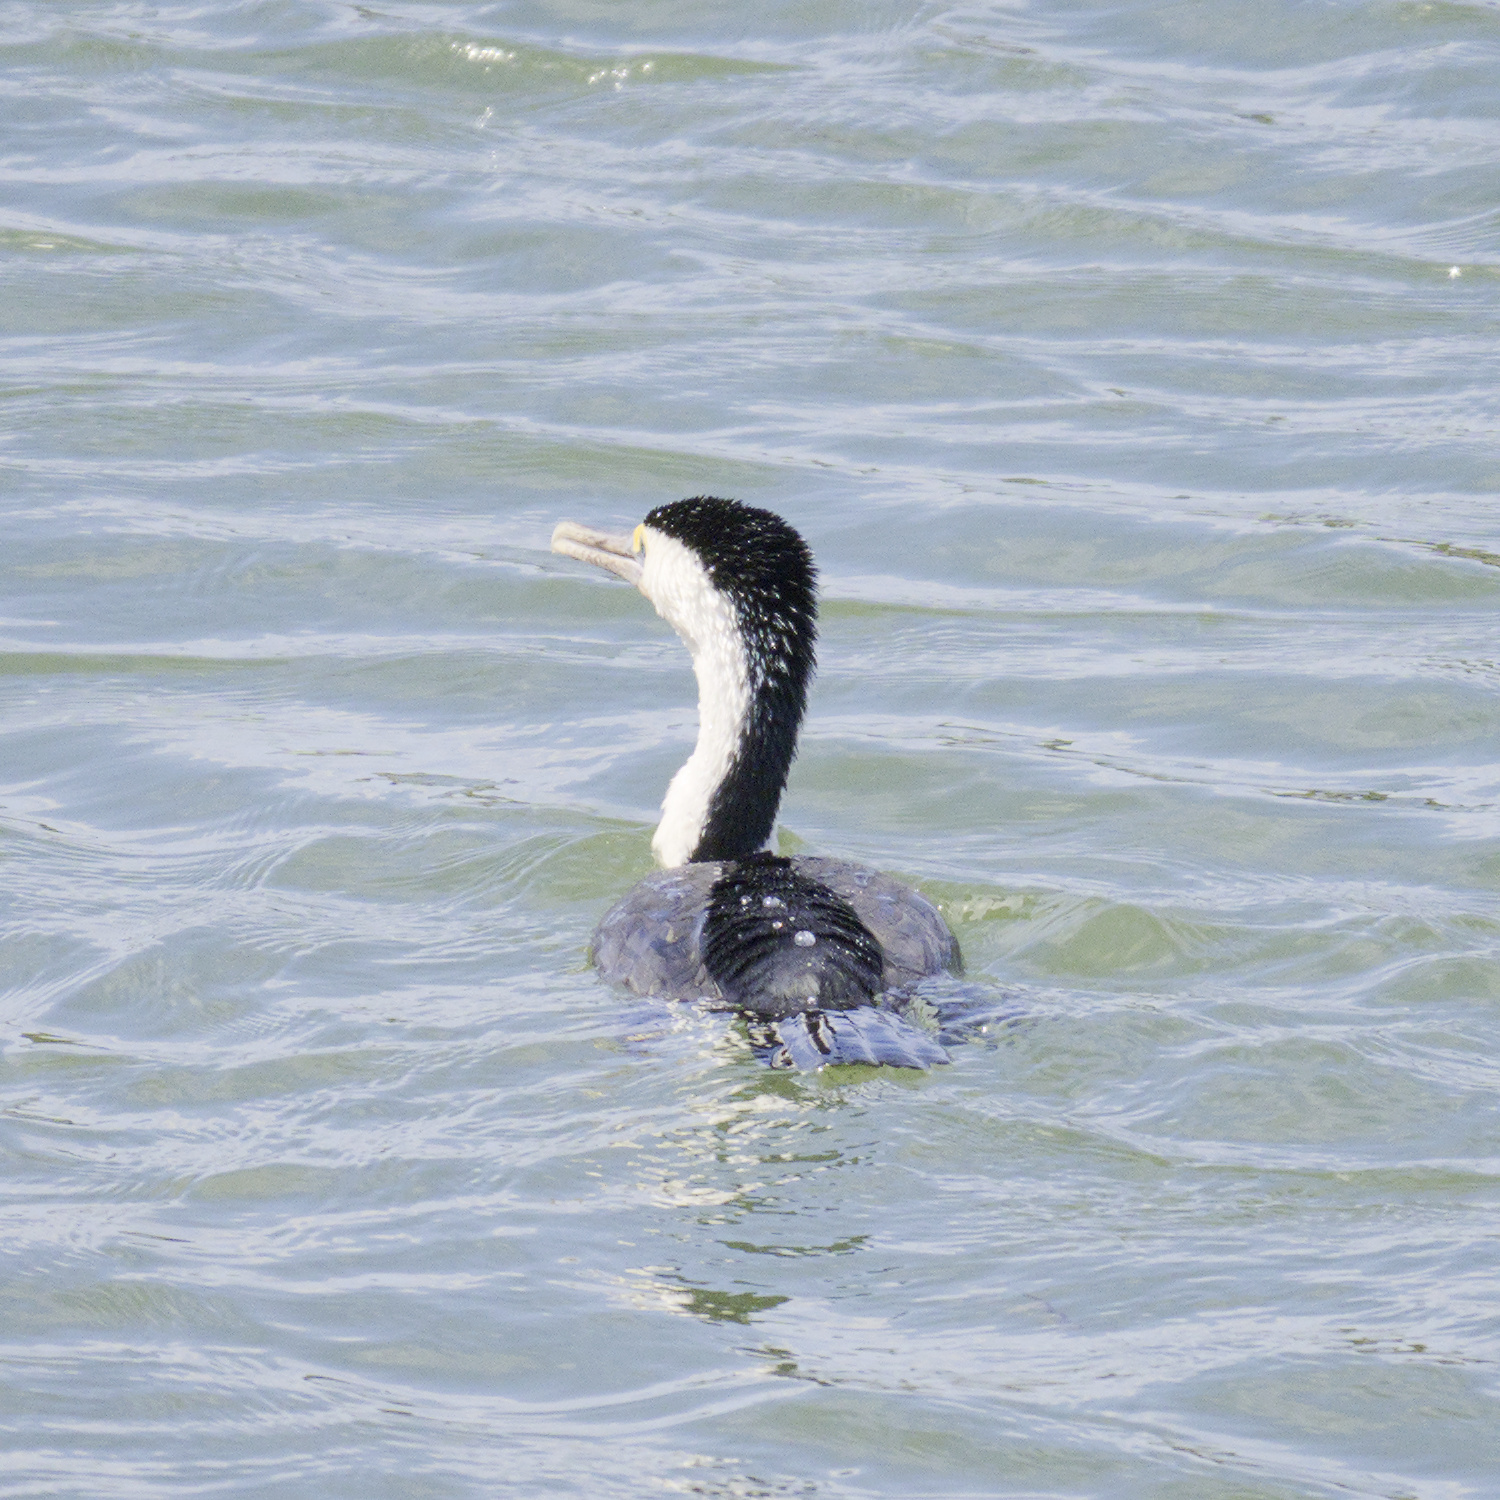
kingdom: Animalia
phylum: Chordata
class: Aves
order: Suliformes
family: Phalacrocoracidae
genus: Phalacrocorax
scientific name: Phalacrocorax varius
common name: Pied cormorant
